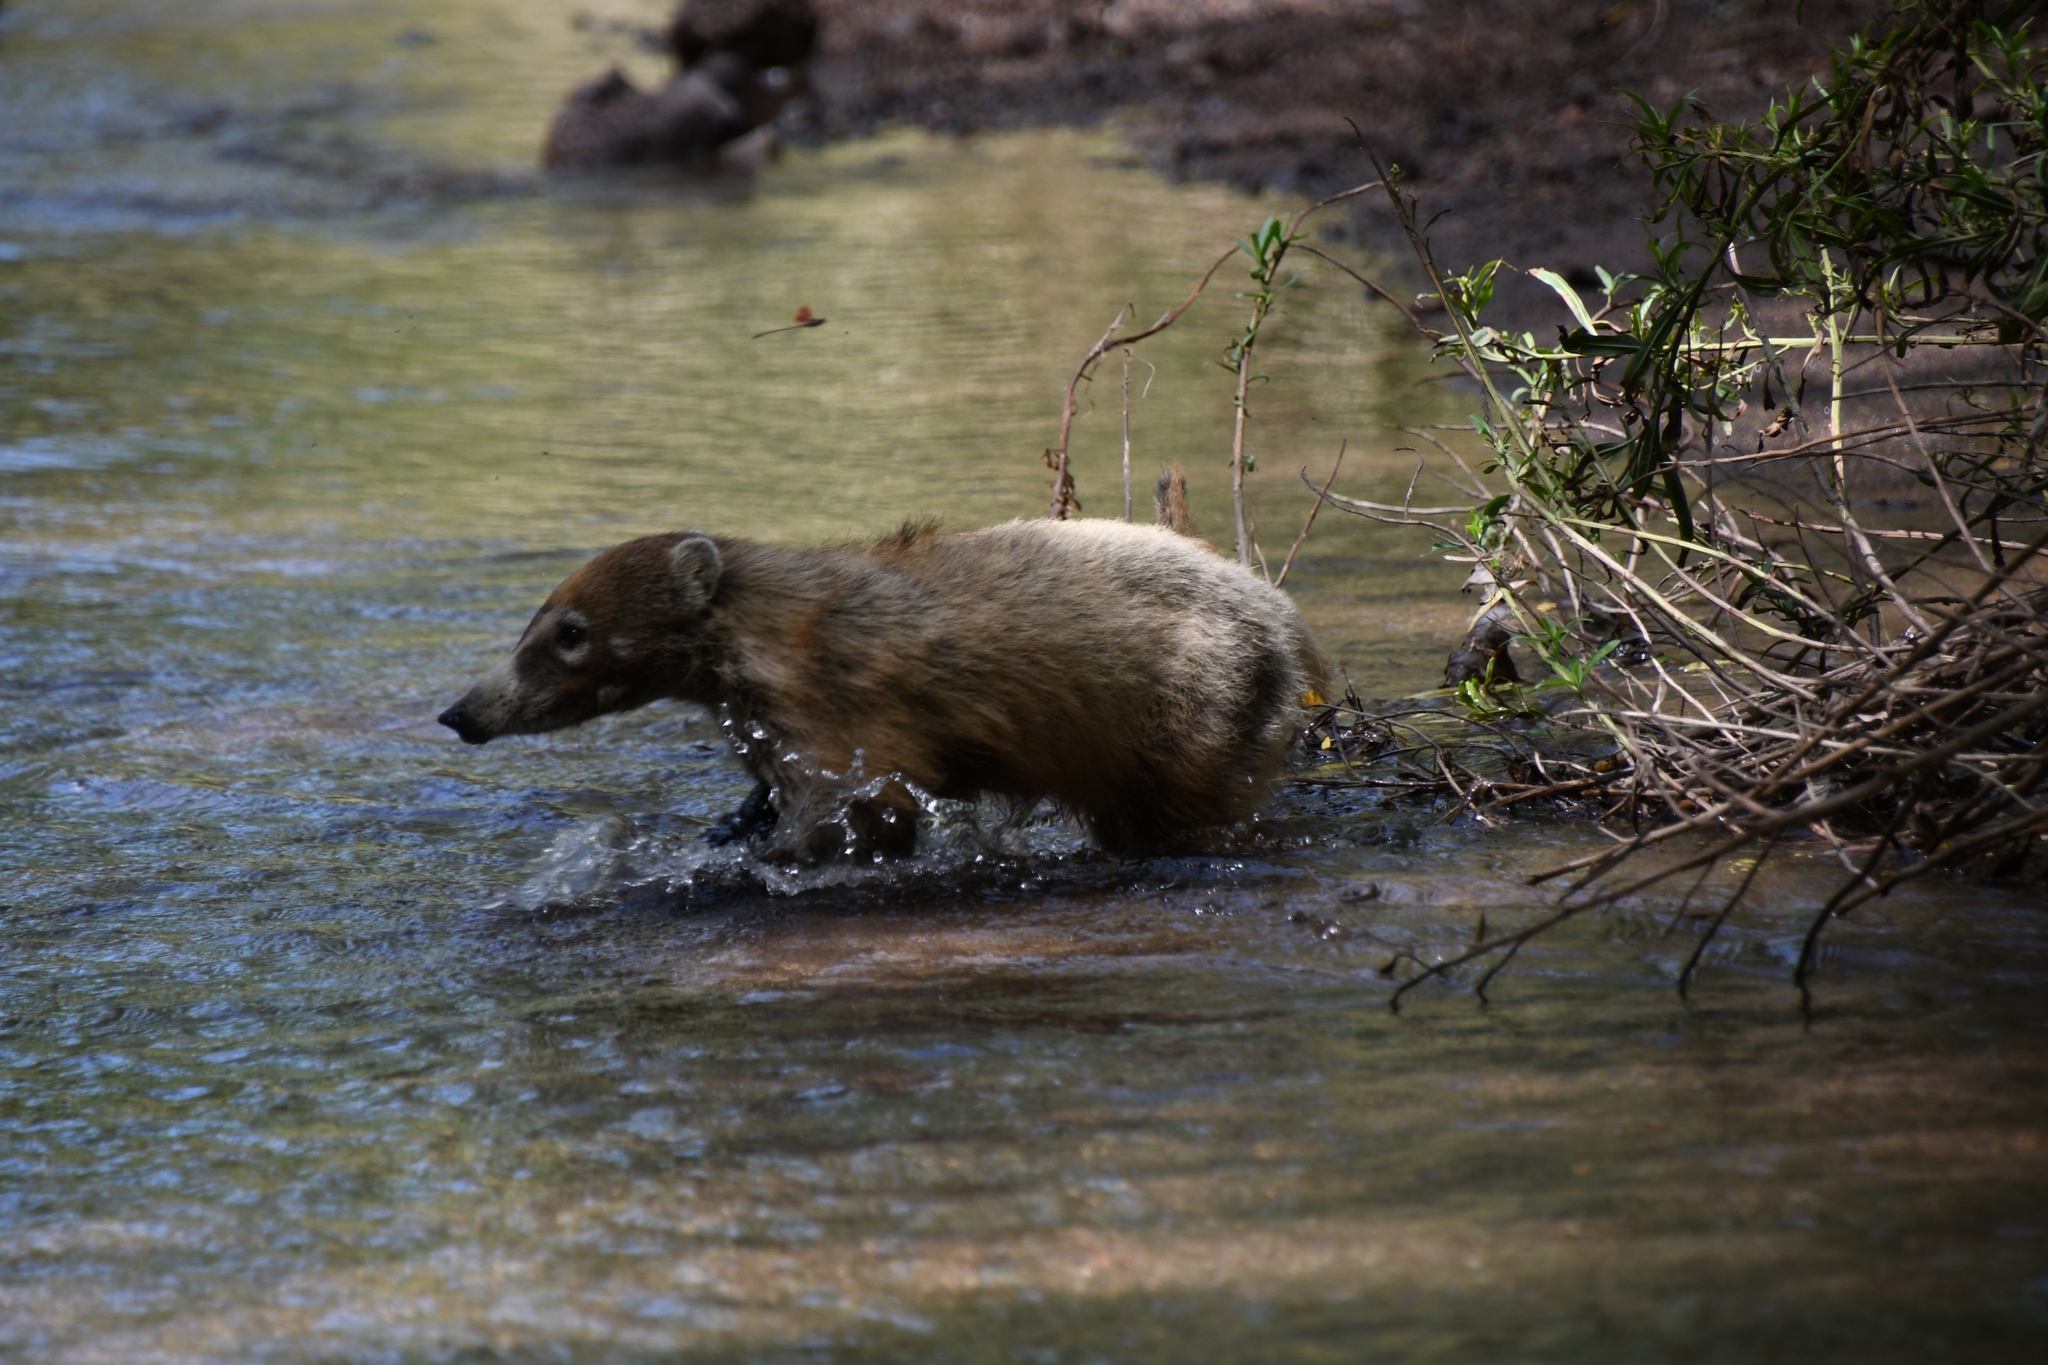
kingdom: Animalia
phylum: Chordata
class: Mammalia
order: Carnivora
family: Procyonidae
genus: Nasua
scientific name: Nasua narica
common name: White-nosed coati
